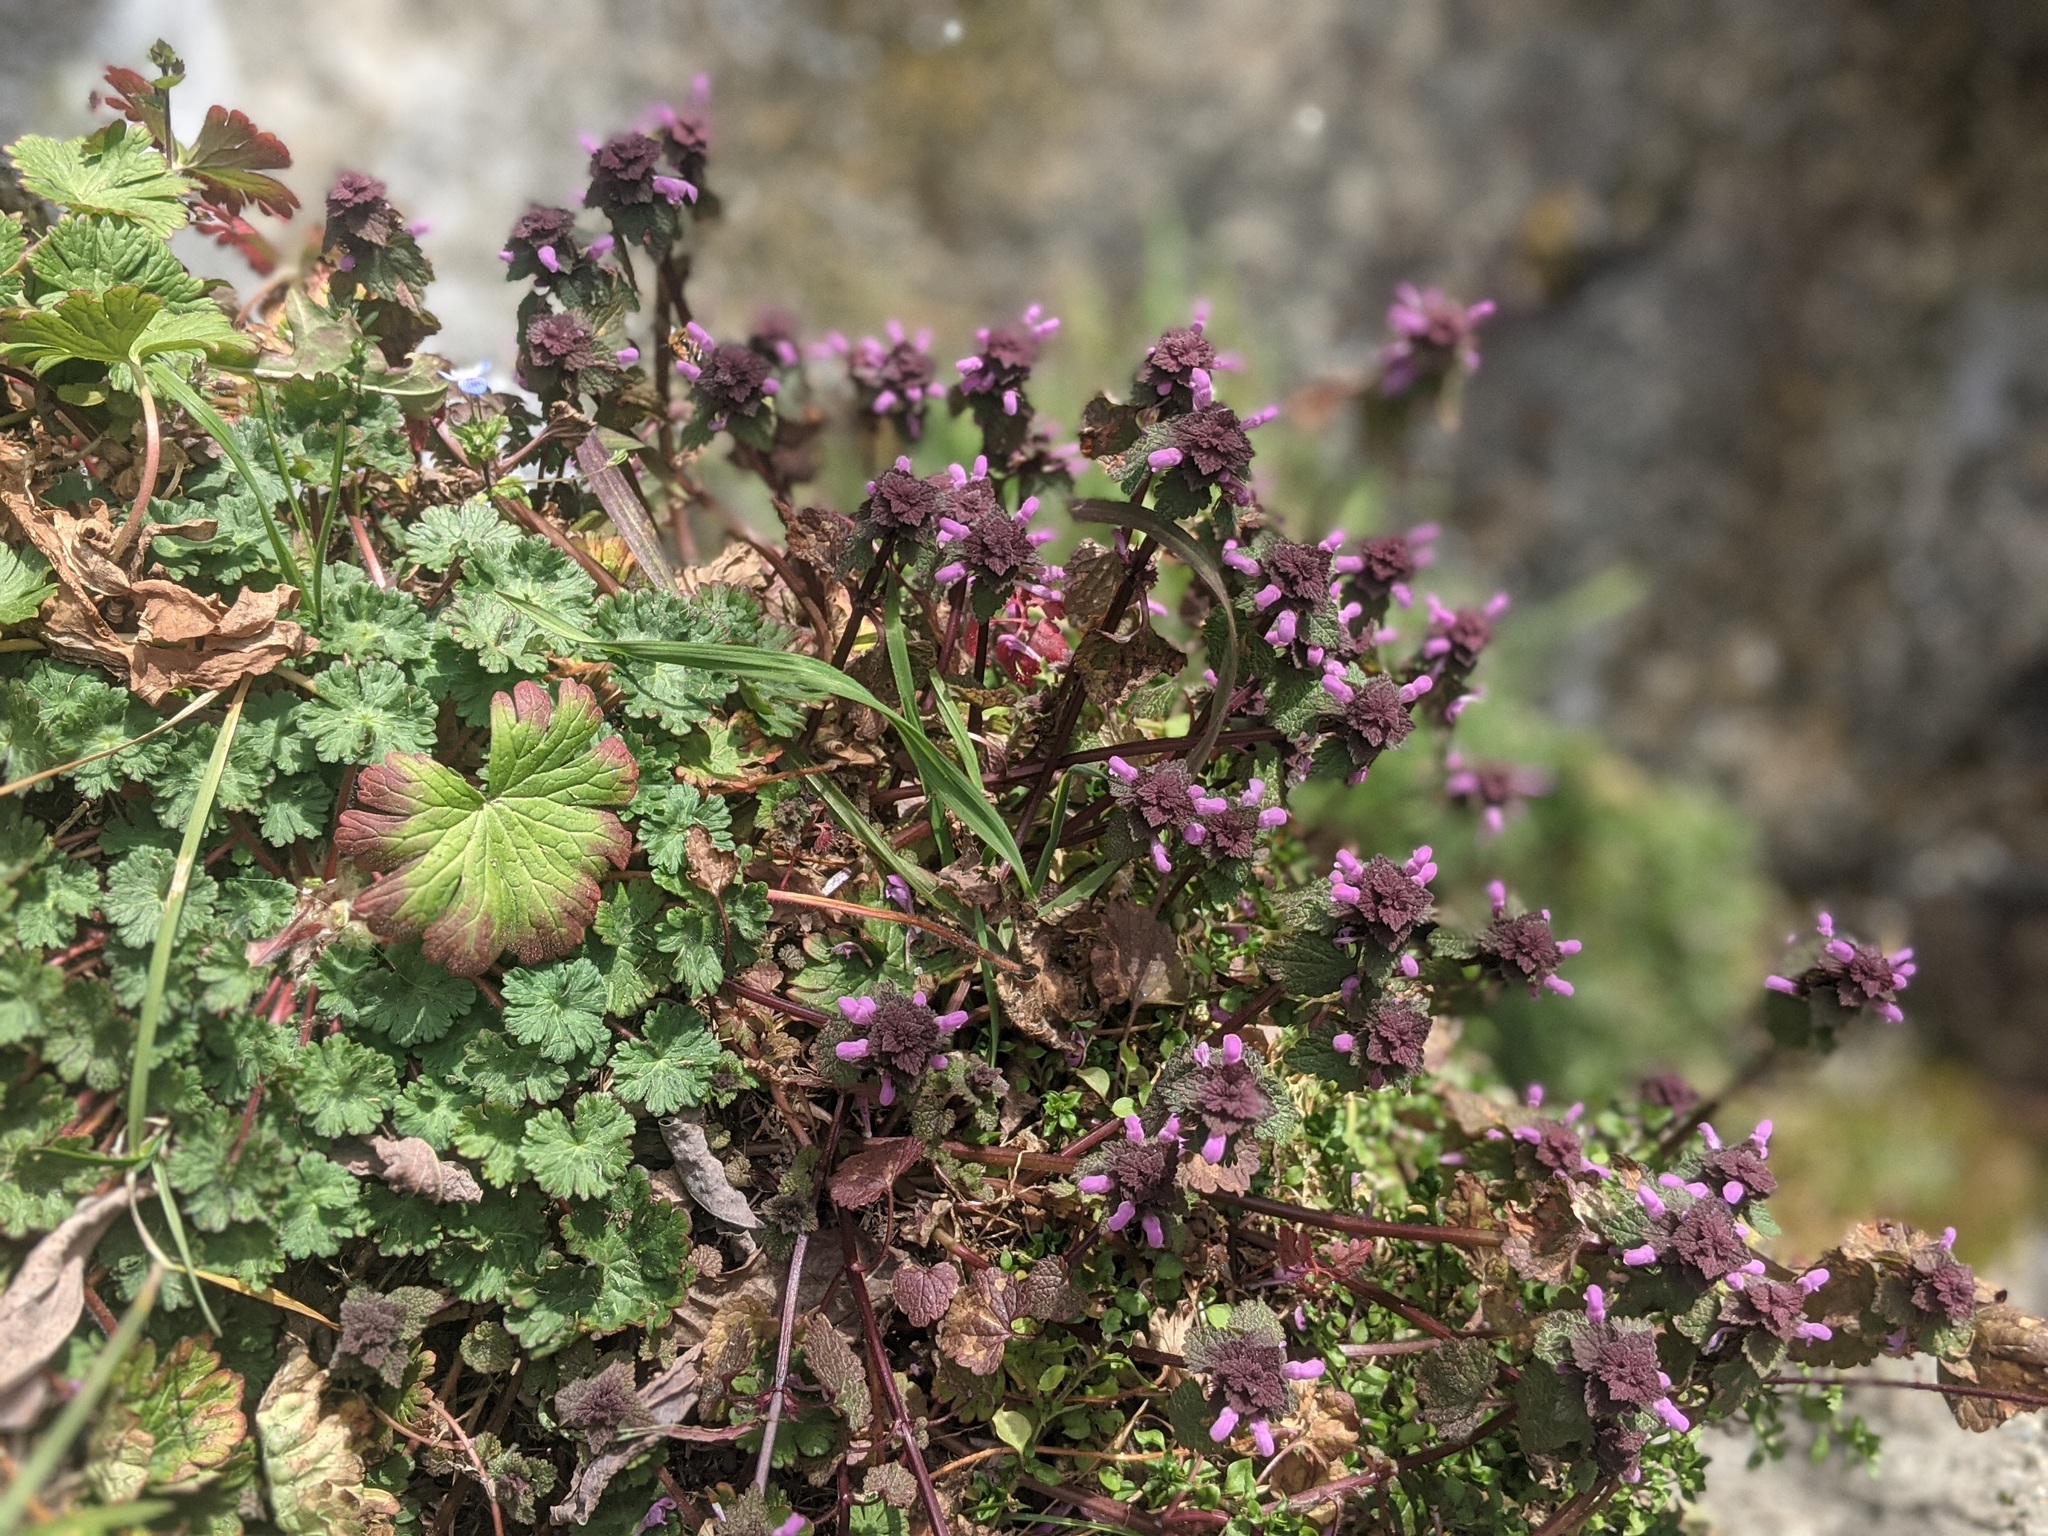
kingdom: Plantae
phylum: Tracheophyta
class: Magnoliopsida
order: Lamiales
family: Lamiaceae
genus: Lamium
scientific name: Lamium purpureum
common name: Red dead-nettle
